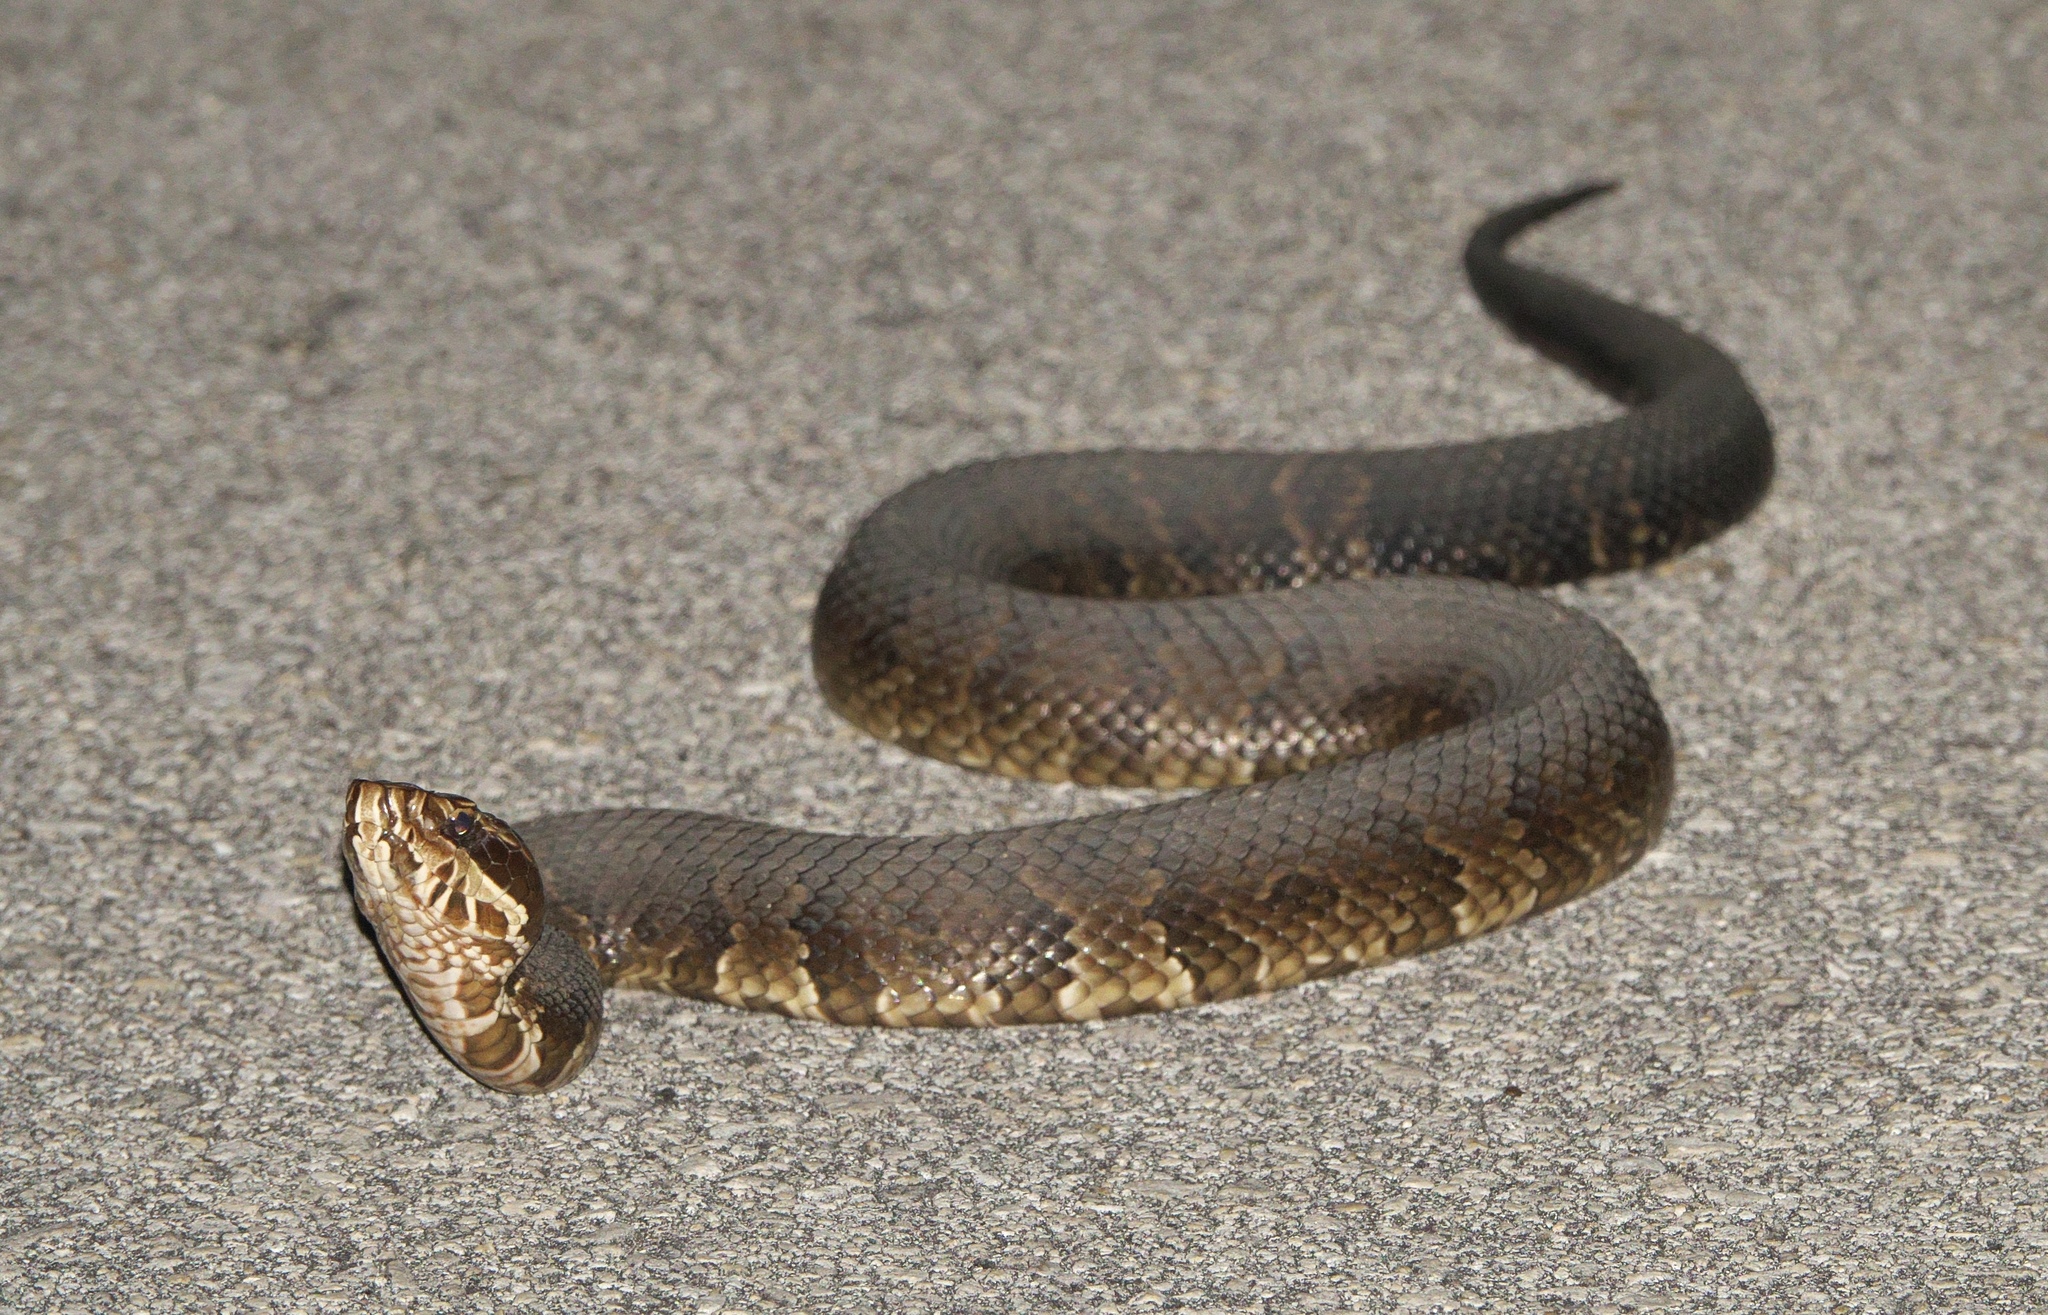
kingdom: Animalia
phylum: Chordata
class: Squamata
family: Viperidae
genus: Agkistrodon
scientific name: Agkistrodon conanti
